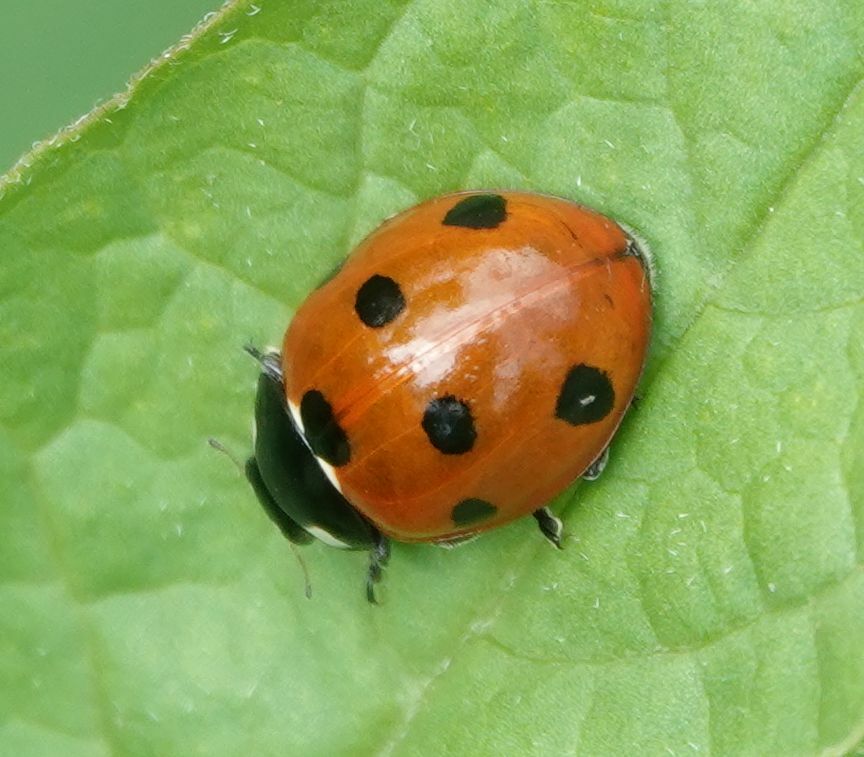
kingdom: Animalia
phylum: Arthropoda
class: Insecta
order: Coleoptera
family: Coccinellidae
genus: Coccinella
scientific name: Coccinella septempunctata
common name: Sevenspotted lady beetle
